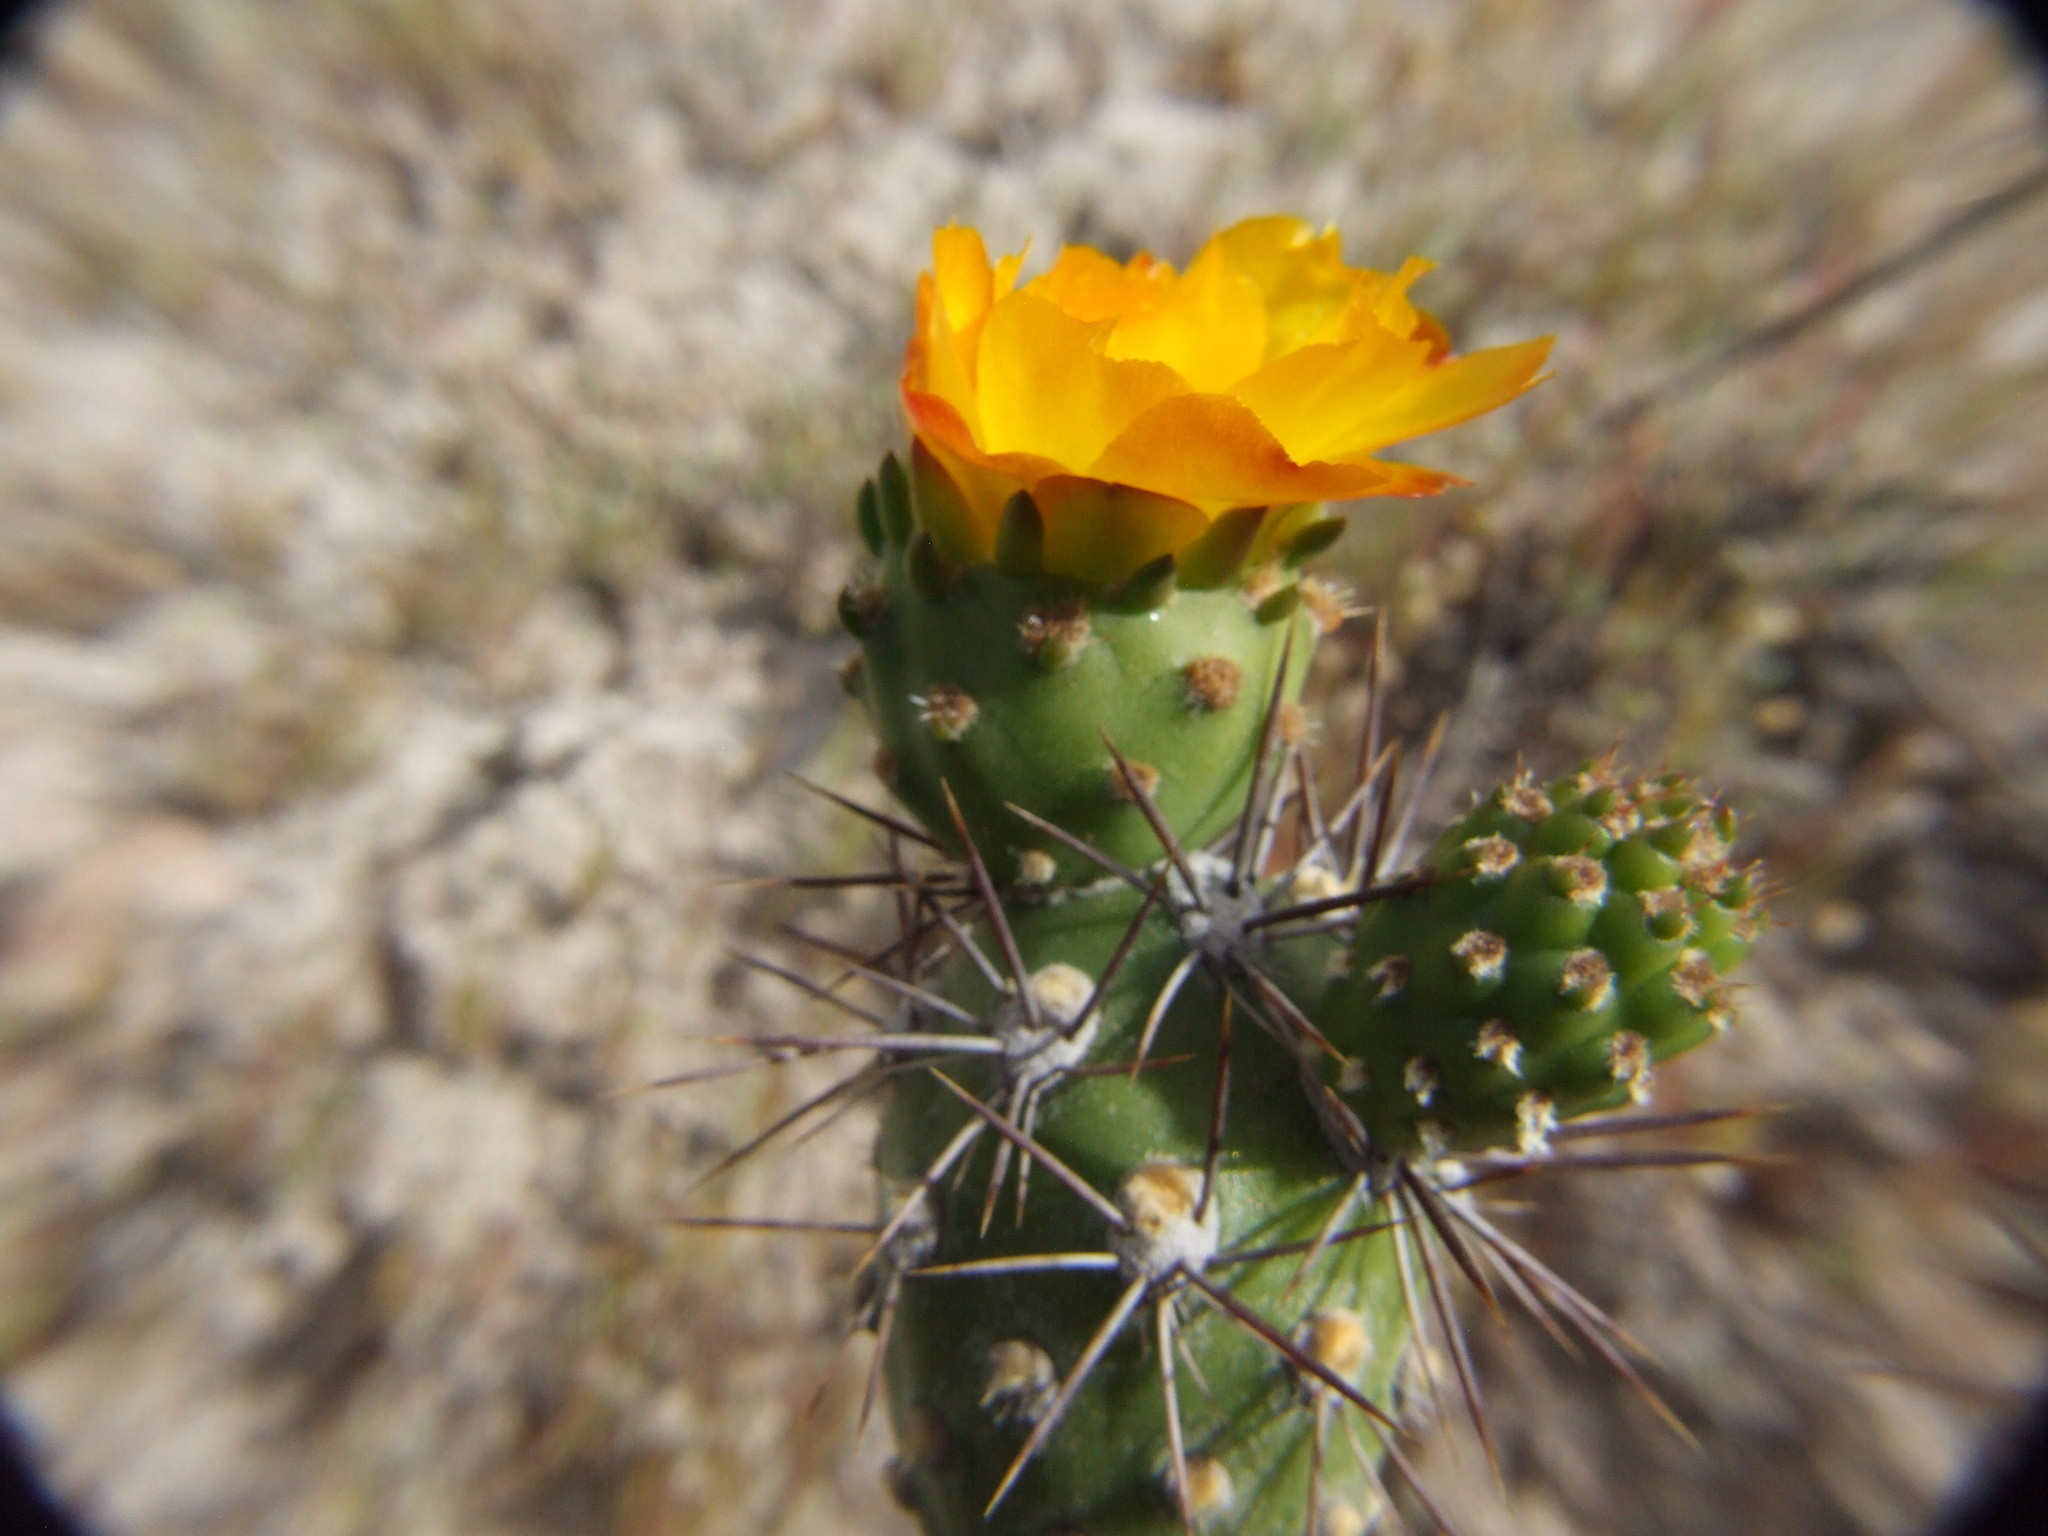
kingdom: Plantae
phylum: Tracheophyta
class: Magnoliopsida
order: Caryophyllales
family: Cactaceae
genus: Cumulopuntia
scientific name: Cumulopuntia leucophaea
